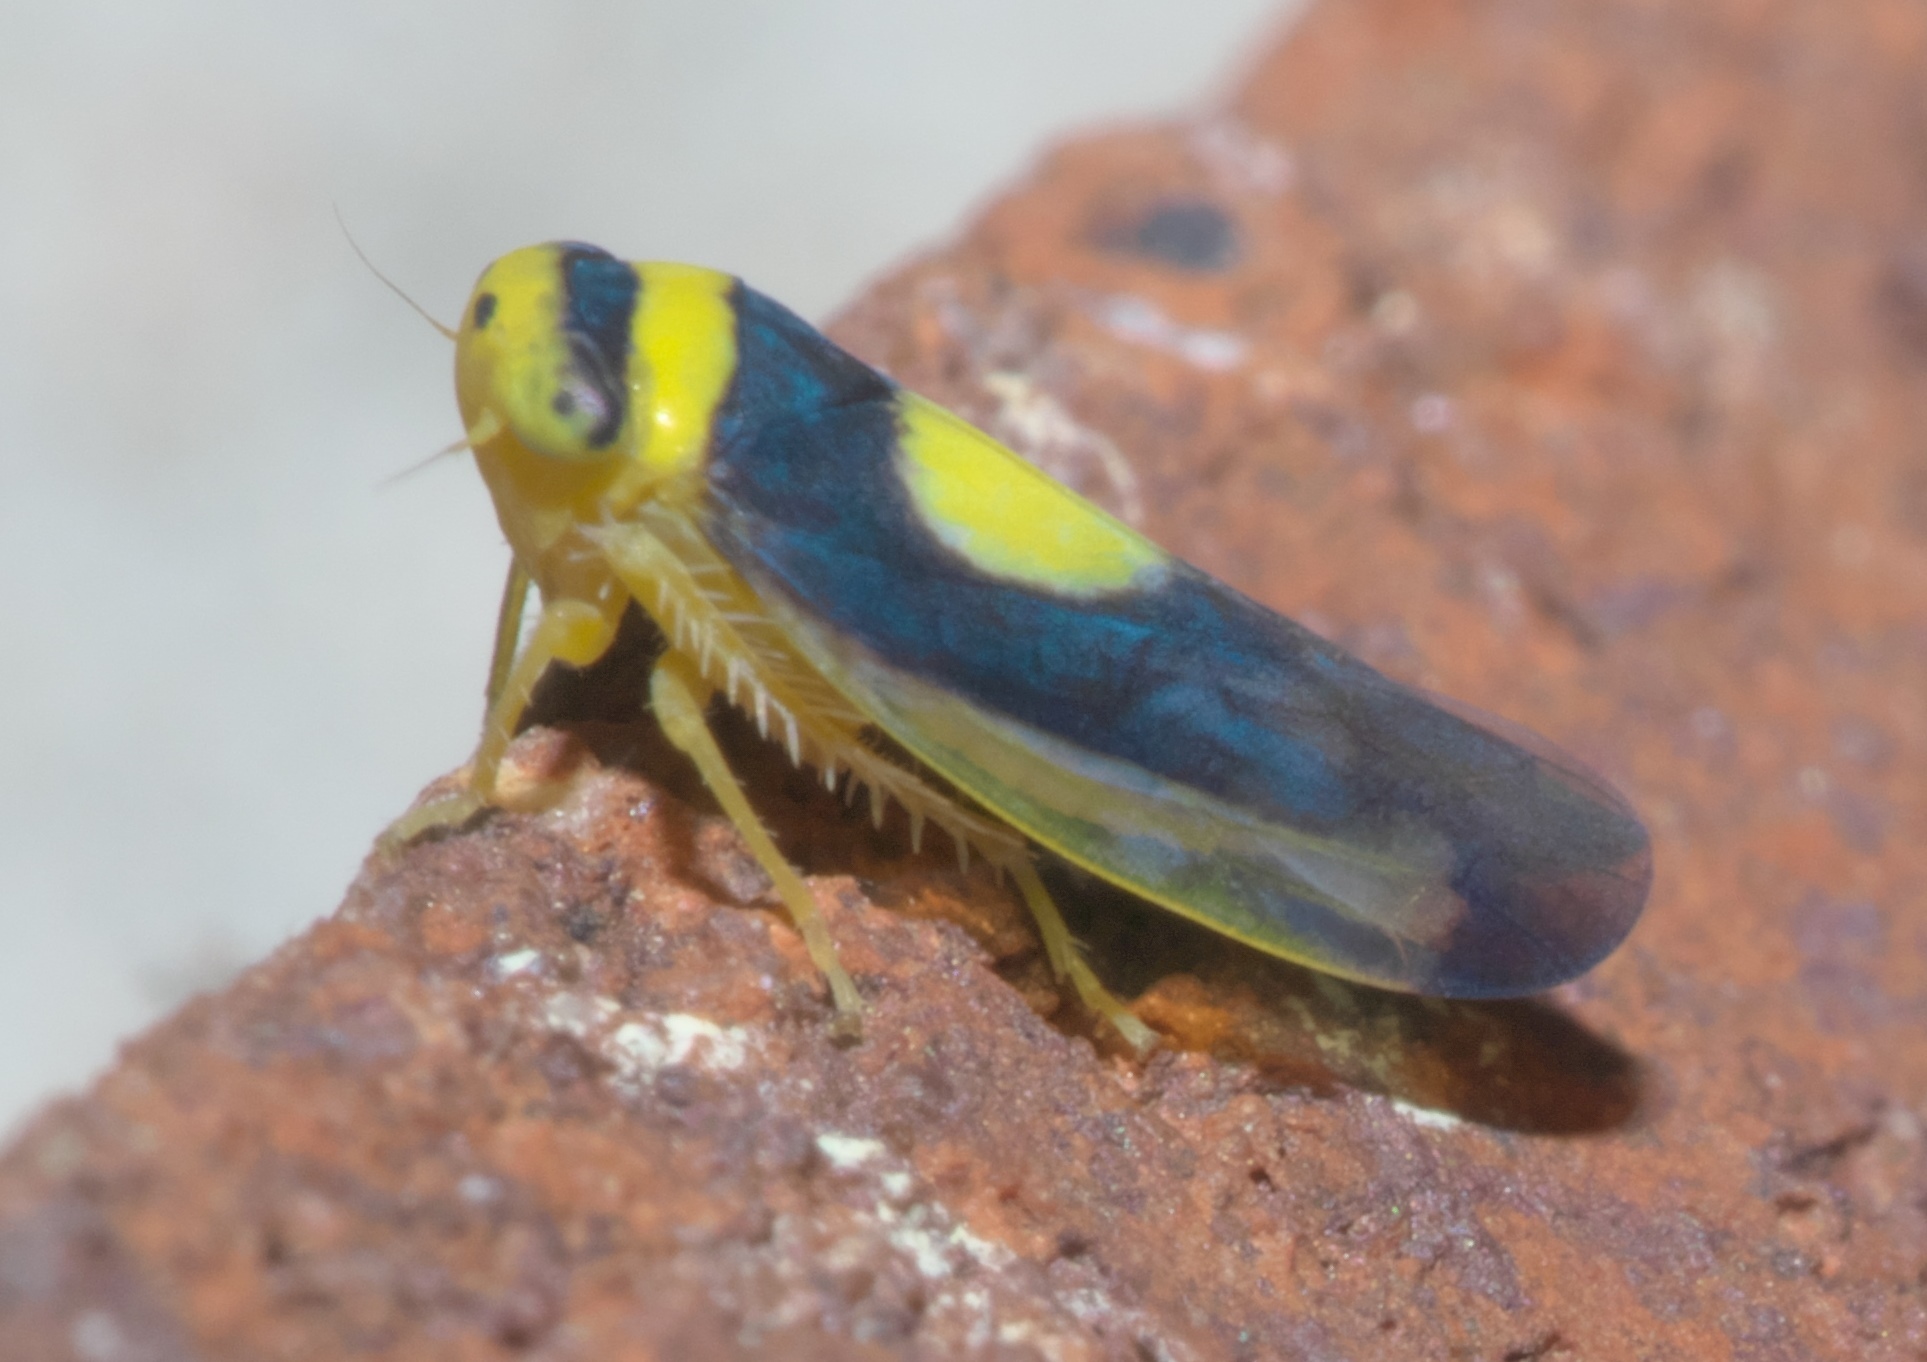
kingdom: Animalia
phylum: Arthropoda
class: Insecta
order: Hemiptera
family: Cicadellidae
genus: Colladonus
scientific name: Colladonus clitellarius
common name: The saddleback leafhopper
